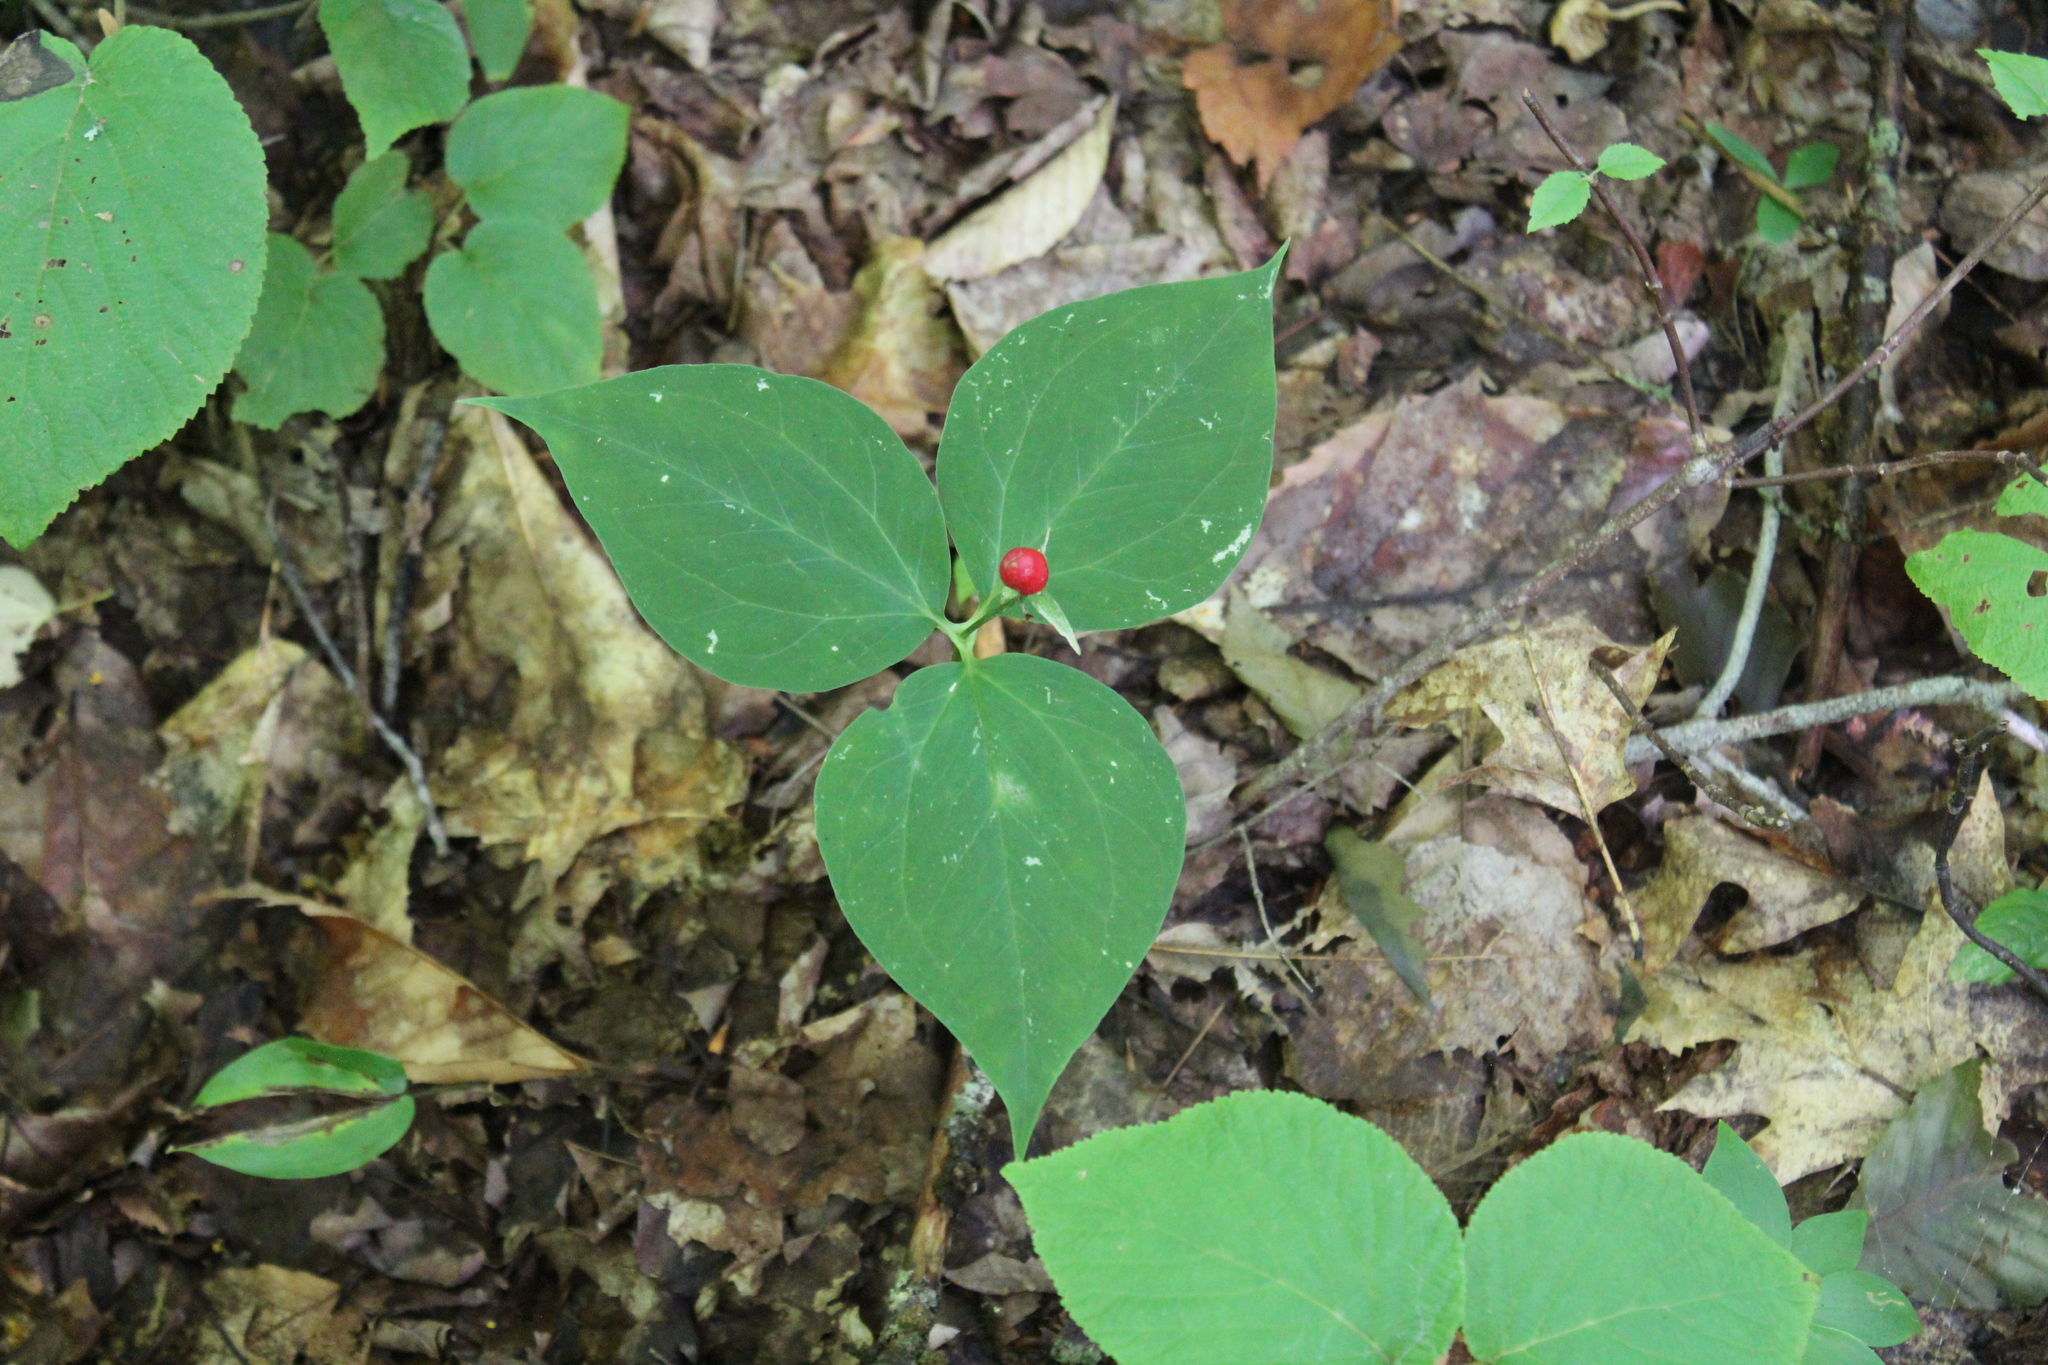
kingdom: Plantae
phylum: Tracheophyta
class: Liliopsida
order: Liliales
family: Melanthiaceae
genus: Trillium
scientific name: Trillium undulatum
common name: Paint trillium
